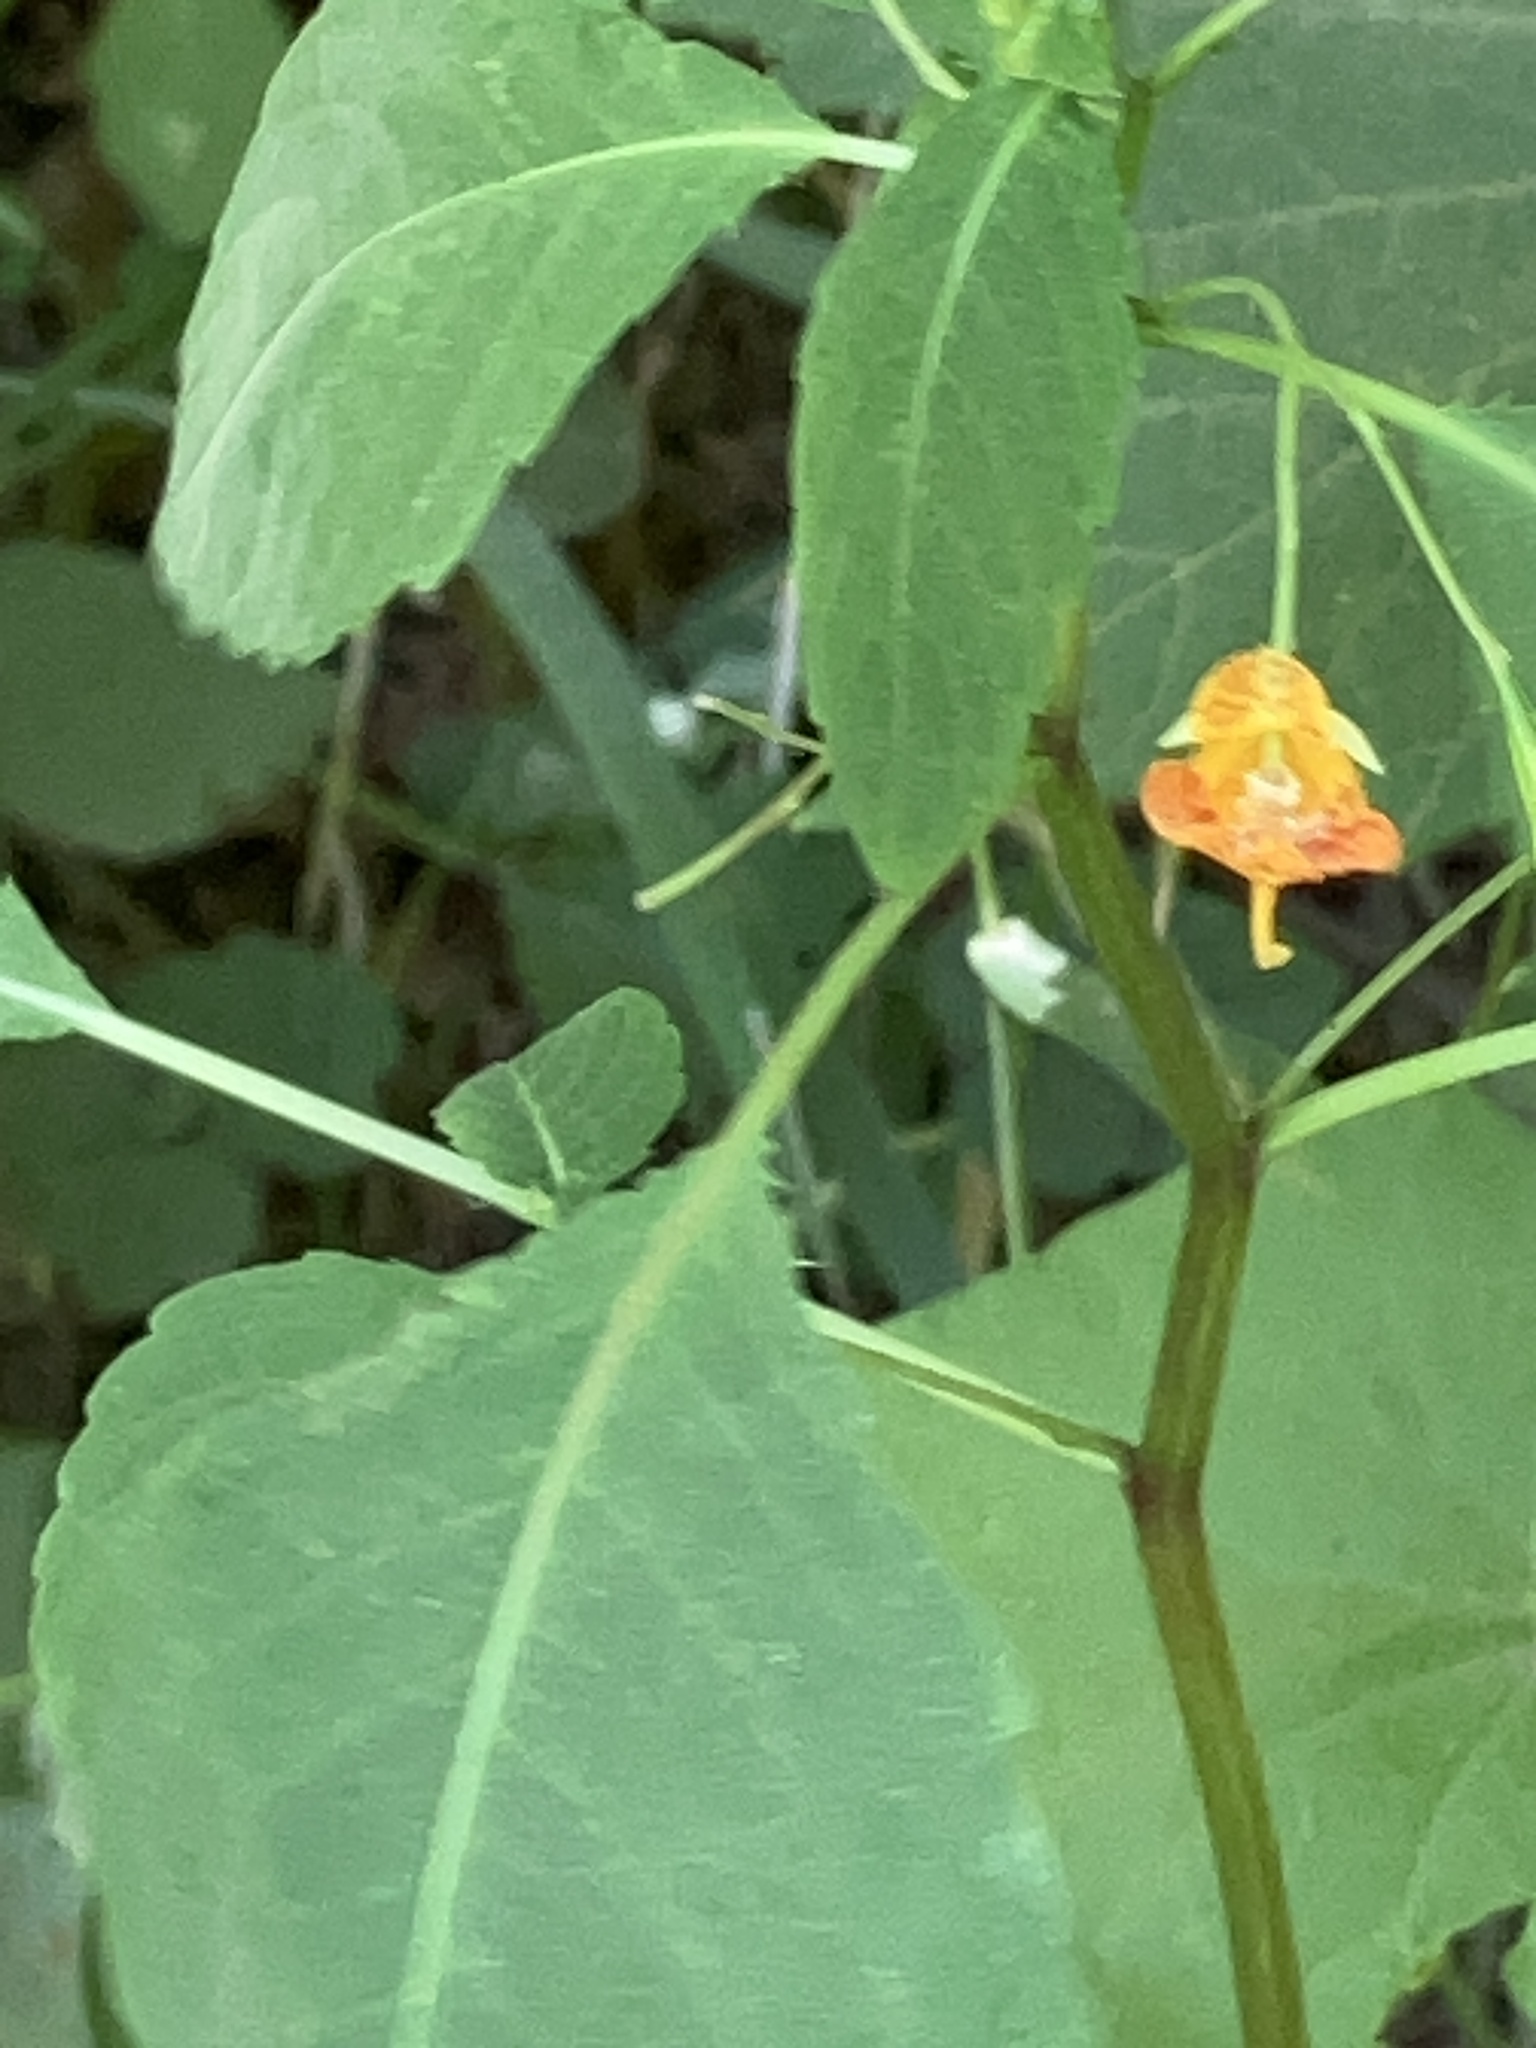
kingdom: Plantae
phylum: Tracheophyta
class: Magnoliopsida
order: Ericales
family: Balsaminaceae
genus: Impatiens
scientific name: Impatiens capensis
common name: Orange balsam
